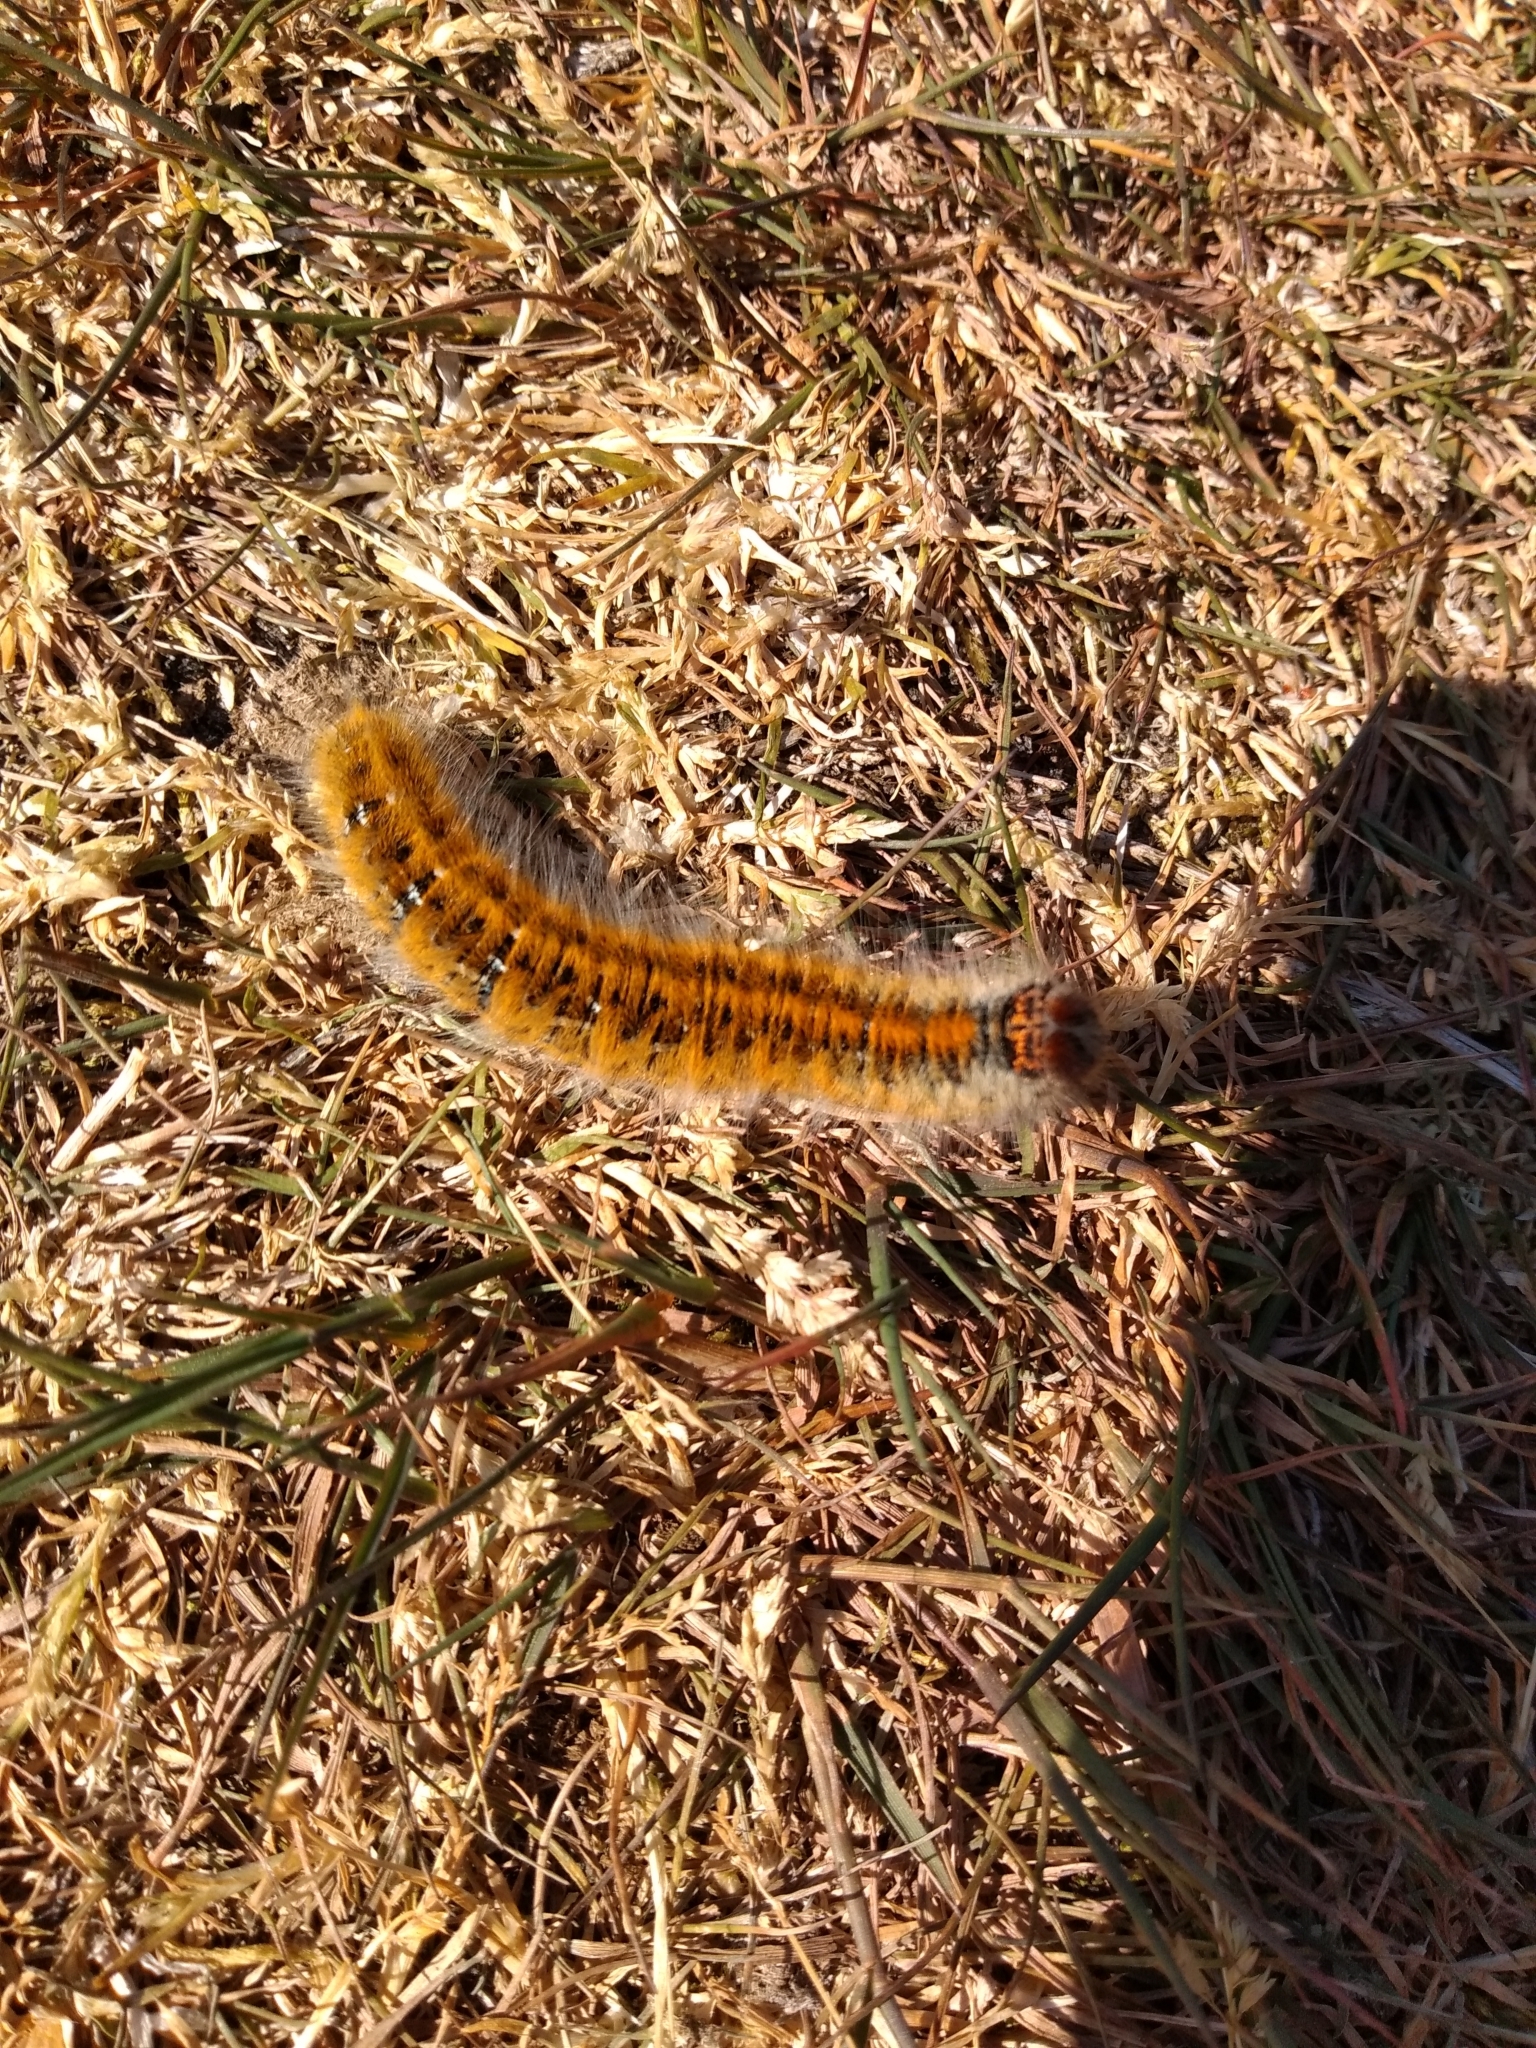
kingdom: Animalia
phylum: Arthropoda
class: Insecta
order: Lepidoptera
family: Lasiocampidae
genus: Lasiocampa
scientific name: Lasiocampa trifolii
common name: Grass eggar
